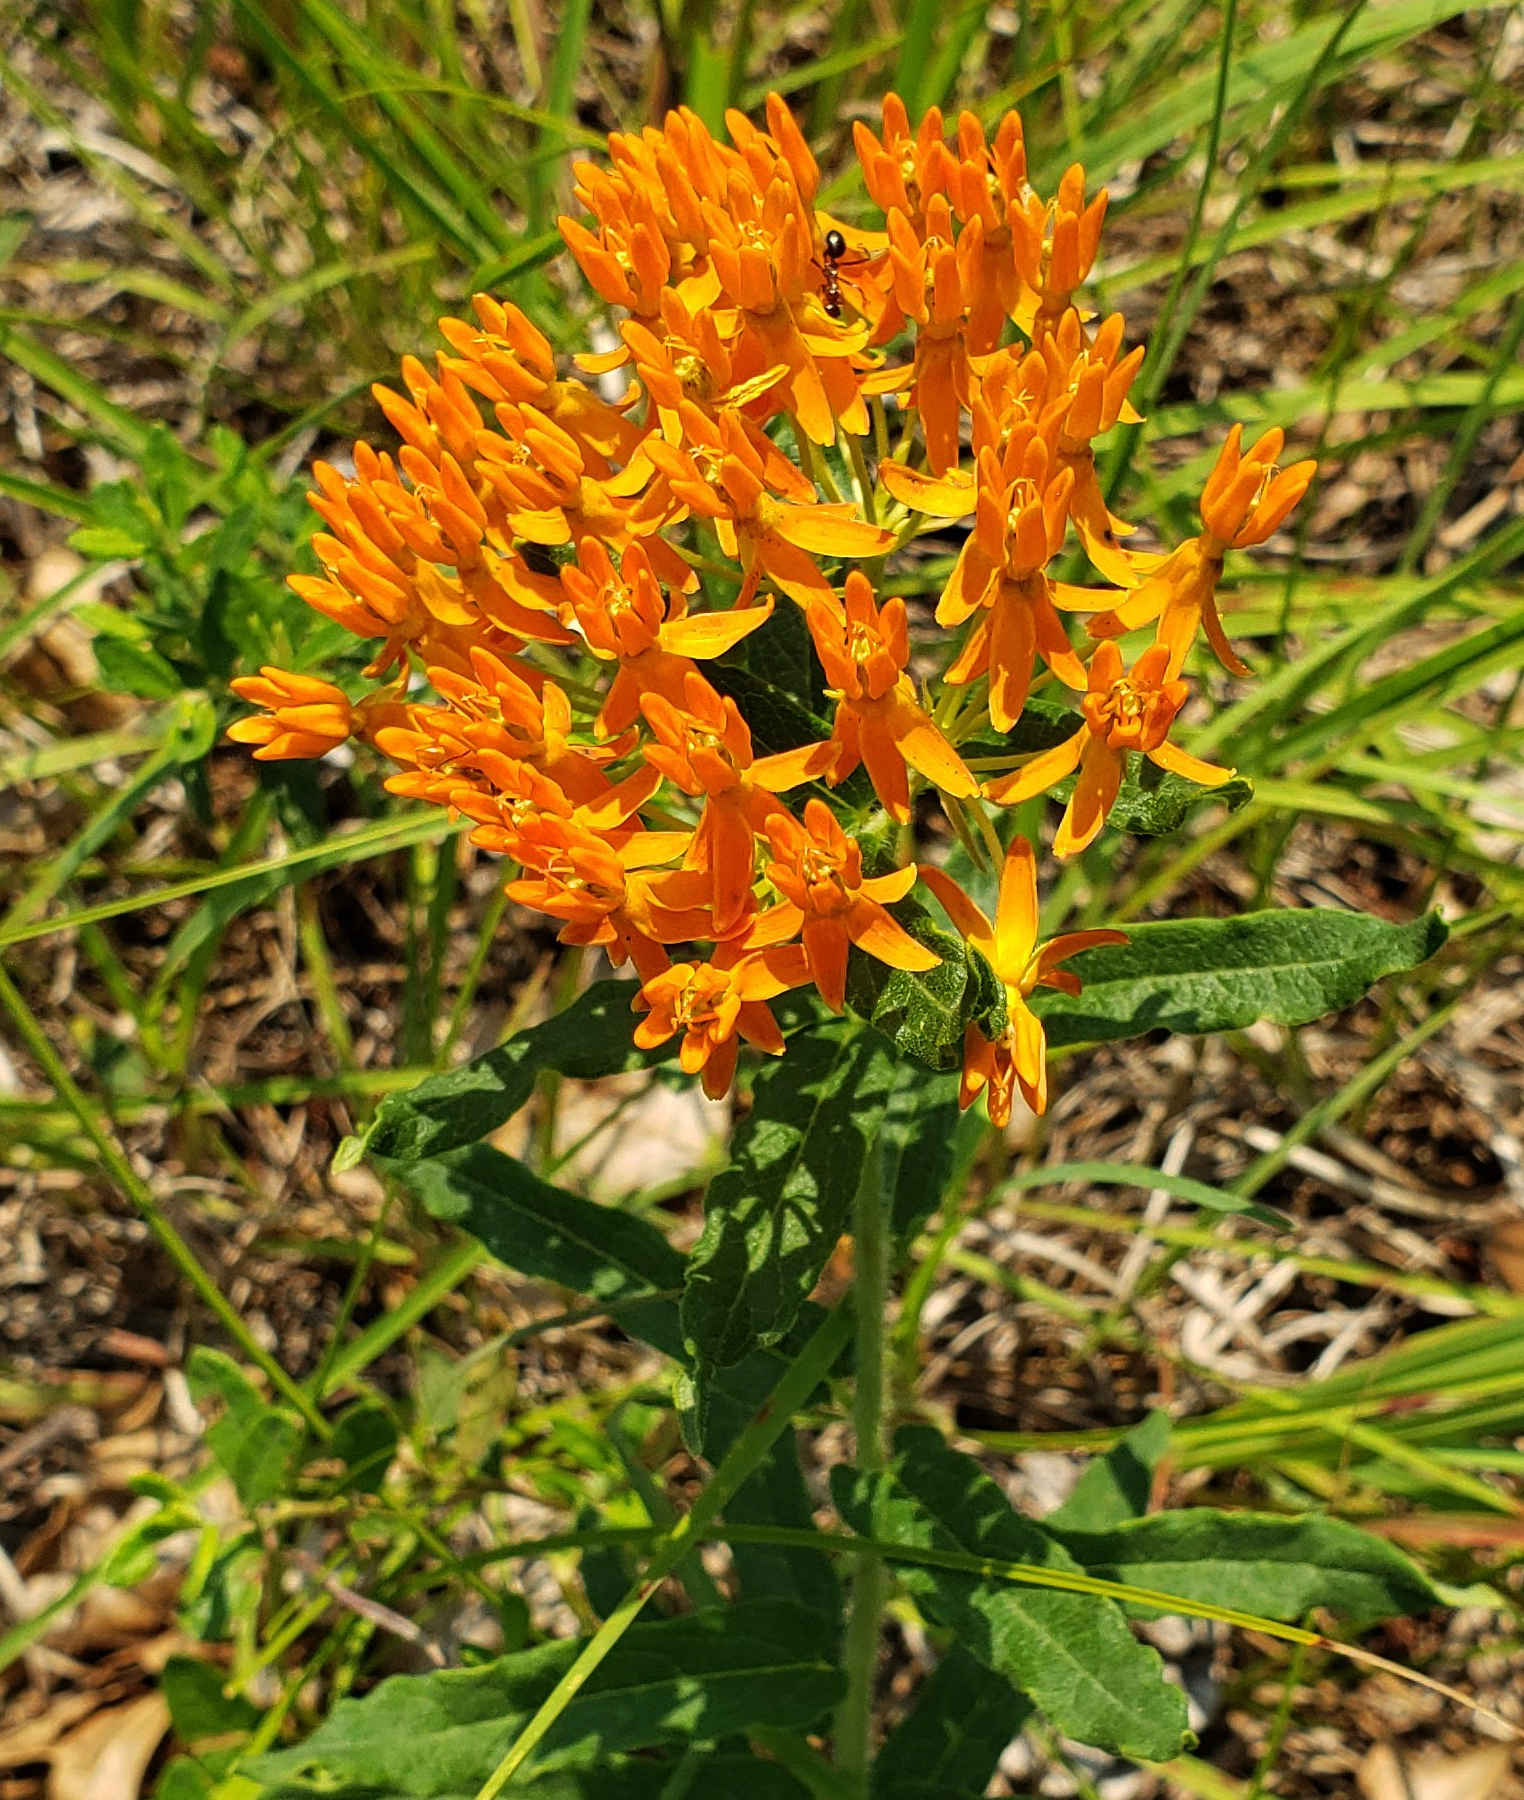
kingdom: Plantae
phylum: Tracheophyta
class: Magnoliopsida
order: Gentianales
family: Apocynaceae
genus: Asclepias
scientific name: Asclepias tuberosa
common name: Butterfly milkweed
